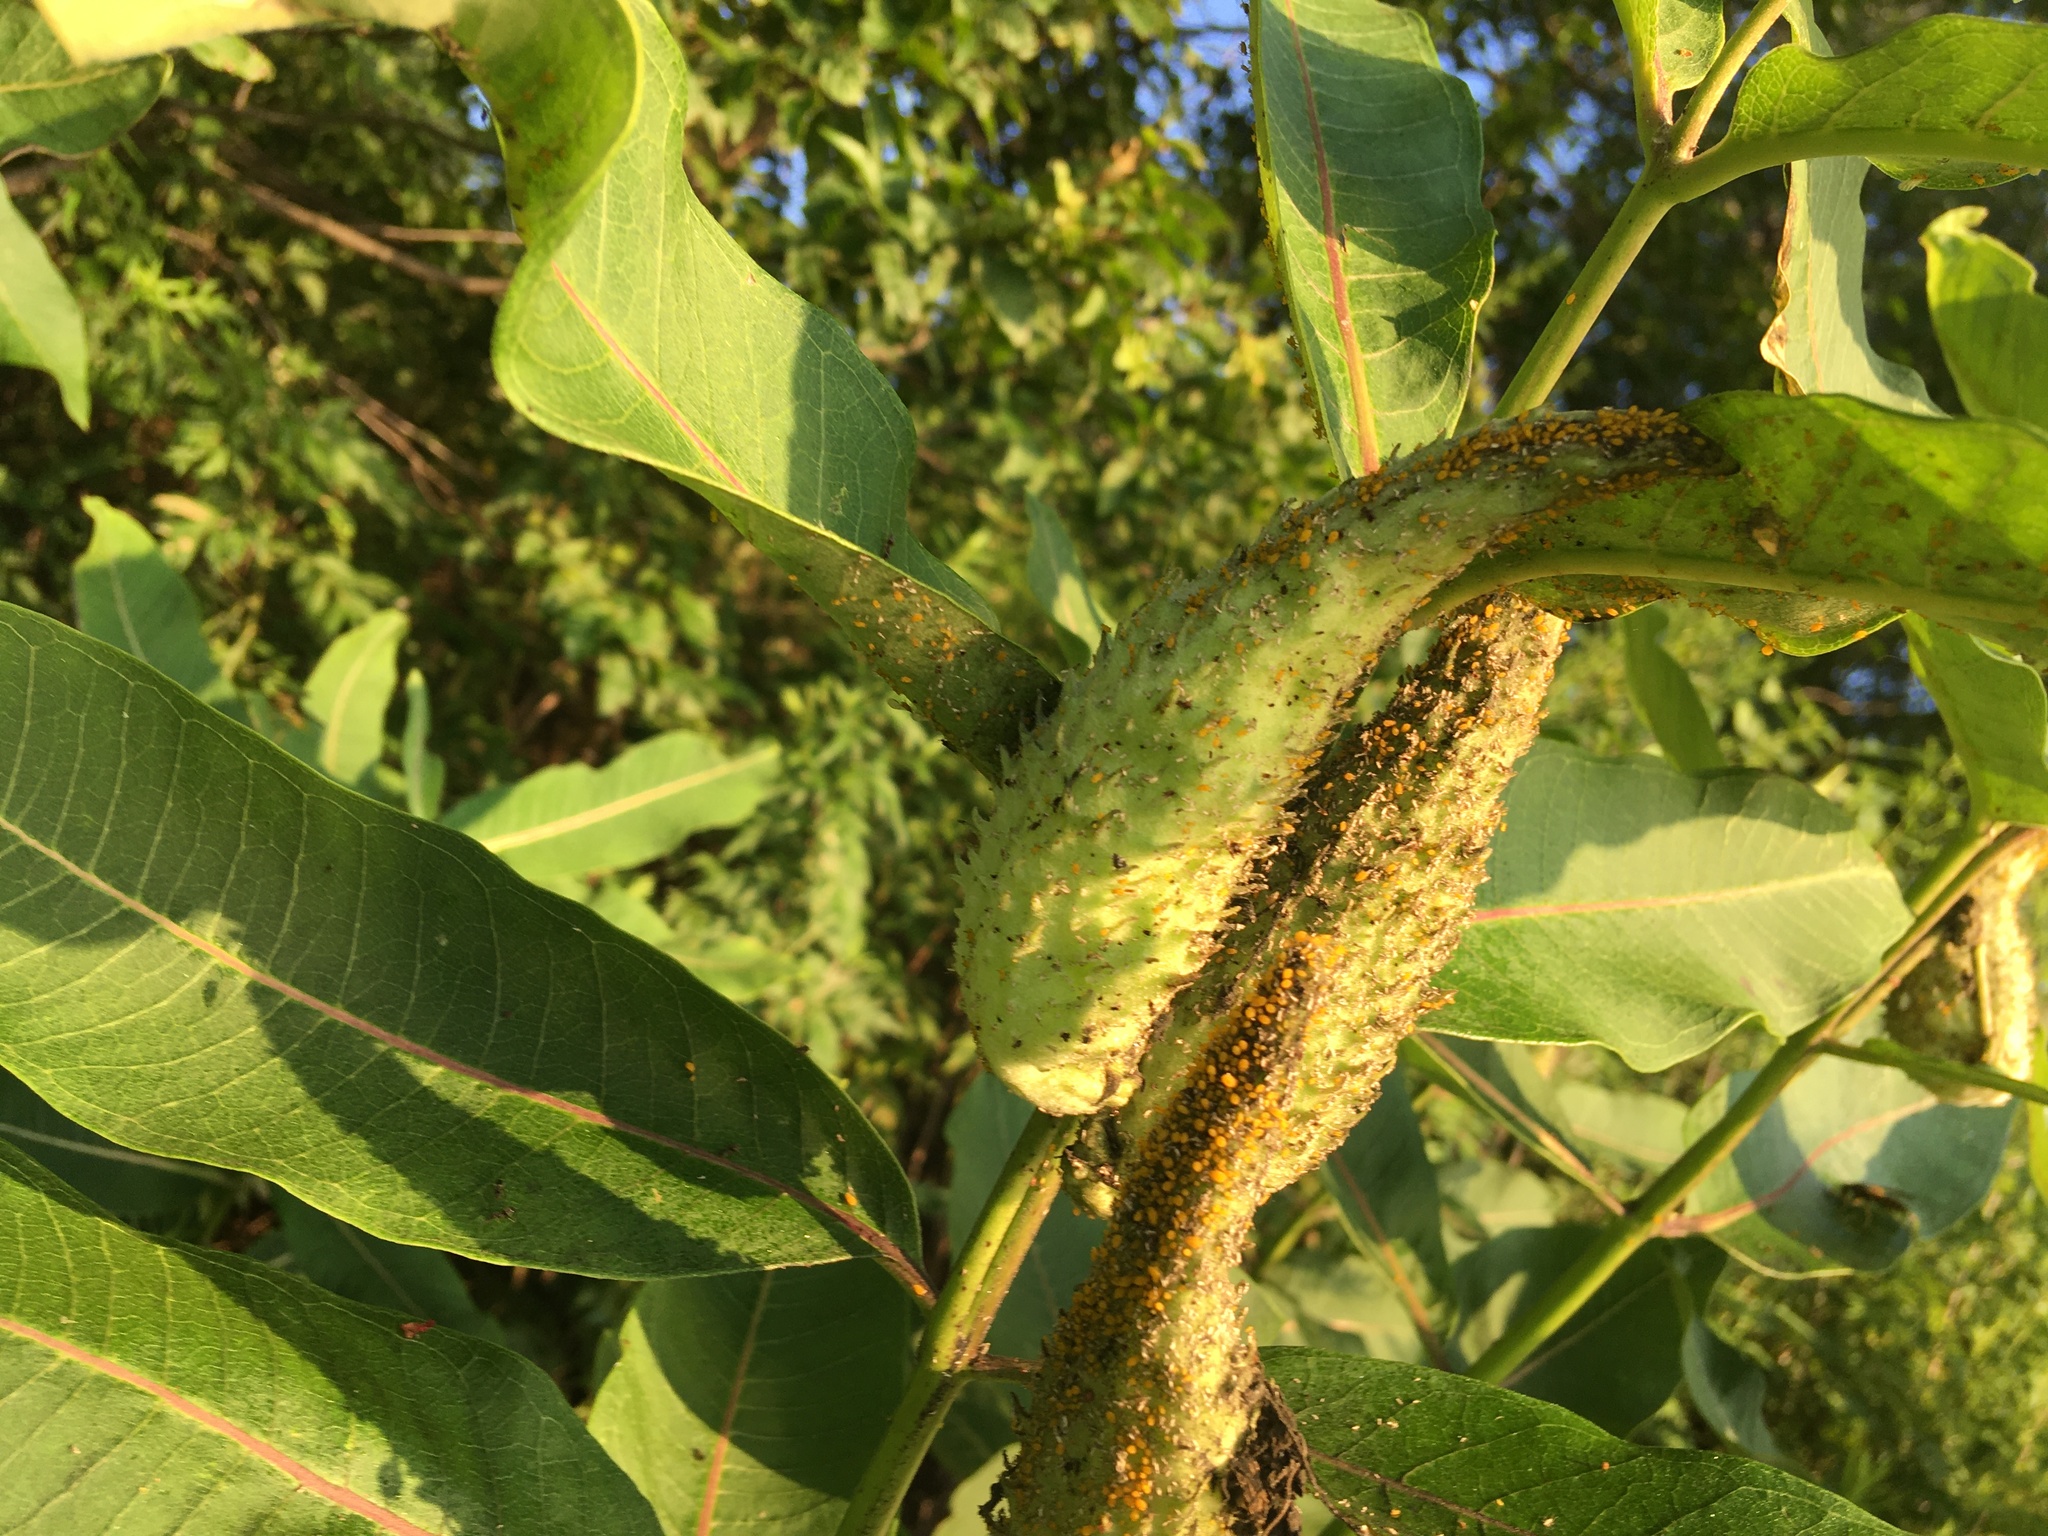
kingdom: Plantae
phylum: Tracheophyta
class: Magnoliopsida
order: Gentianales
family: Apocynaceae
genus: Asclepias
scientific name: Asclepias syriaca
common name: Common milkweed
